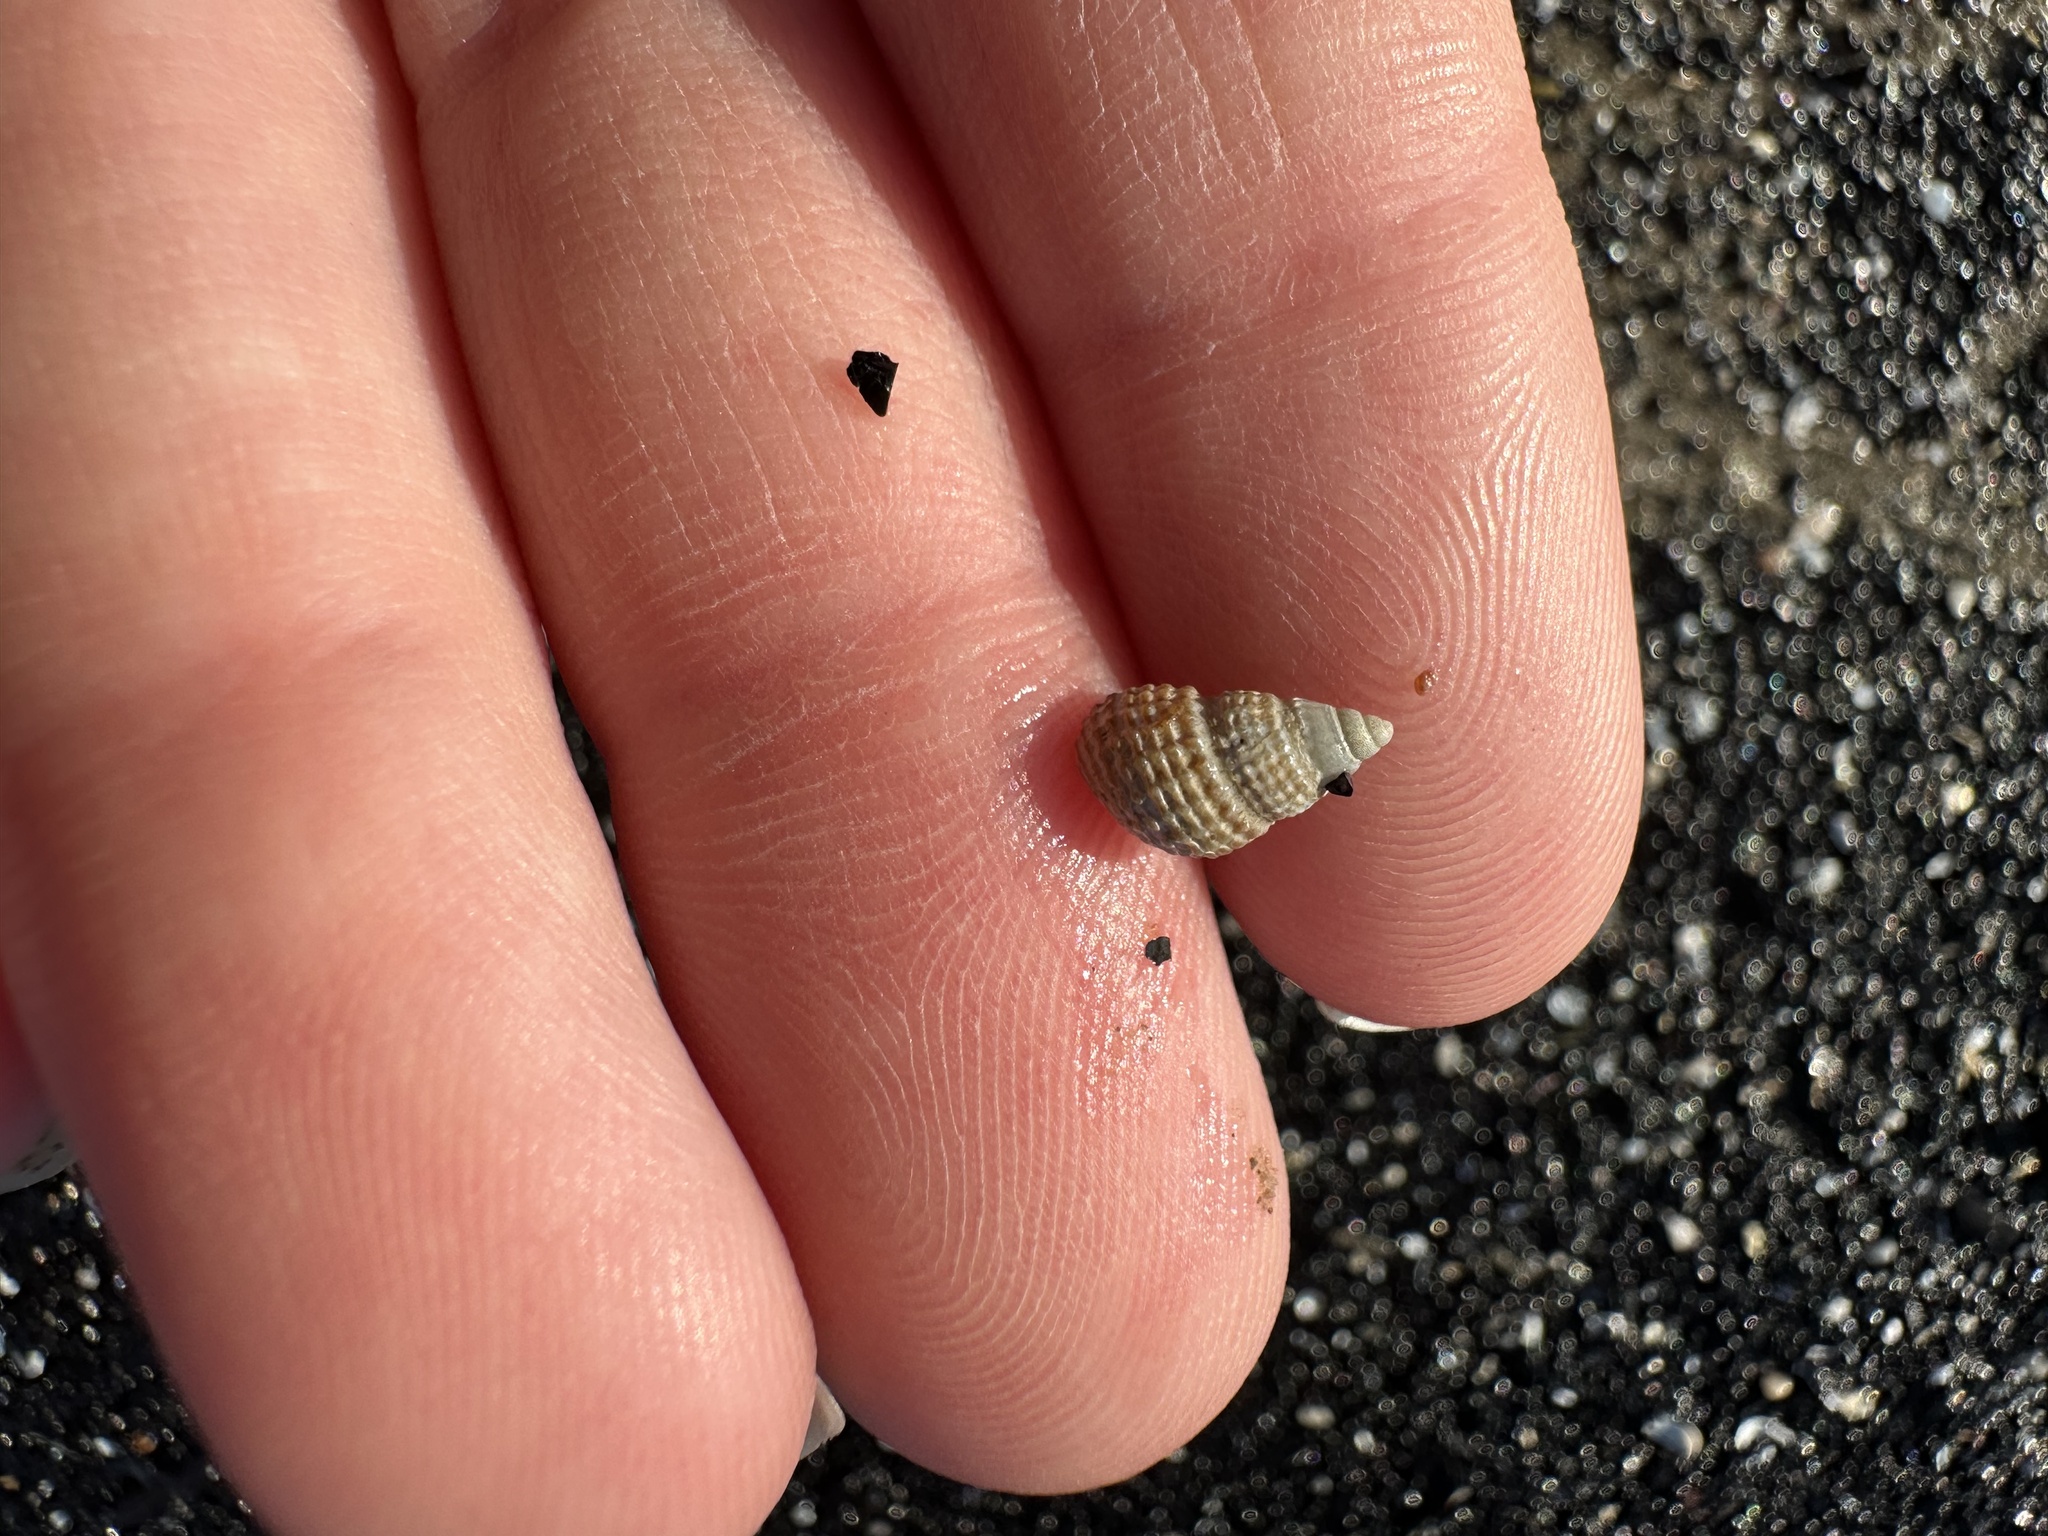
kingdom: Animalia
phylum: Mollusca
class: Gastropoda
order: Neogastropoda
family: Nassariidae
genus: Ilyanassa
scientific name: Ilyanassa trivittata
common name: Three-line mudsnail
